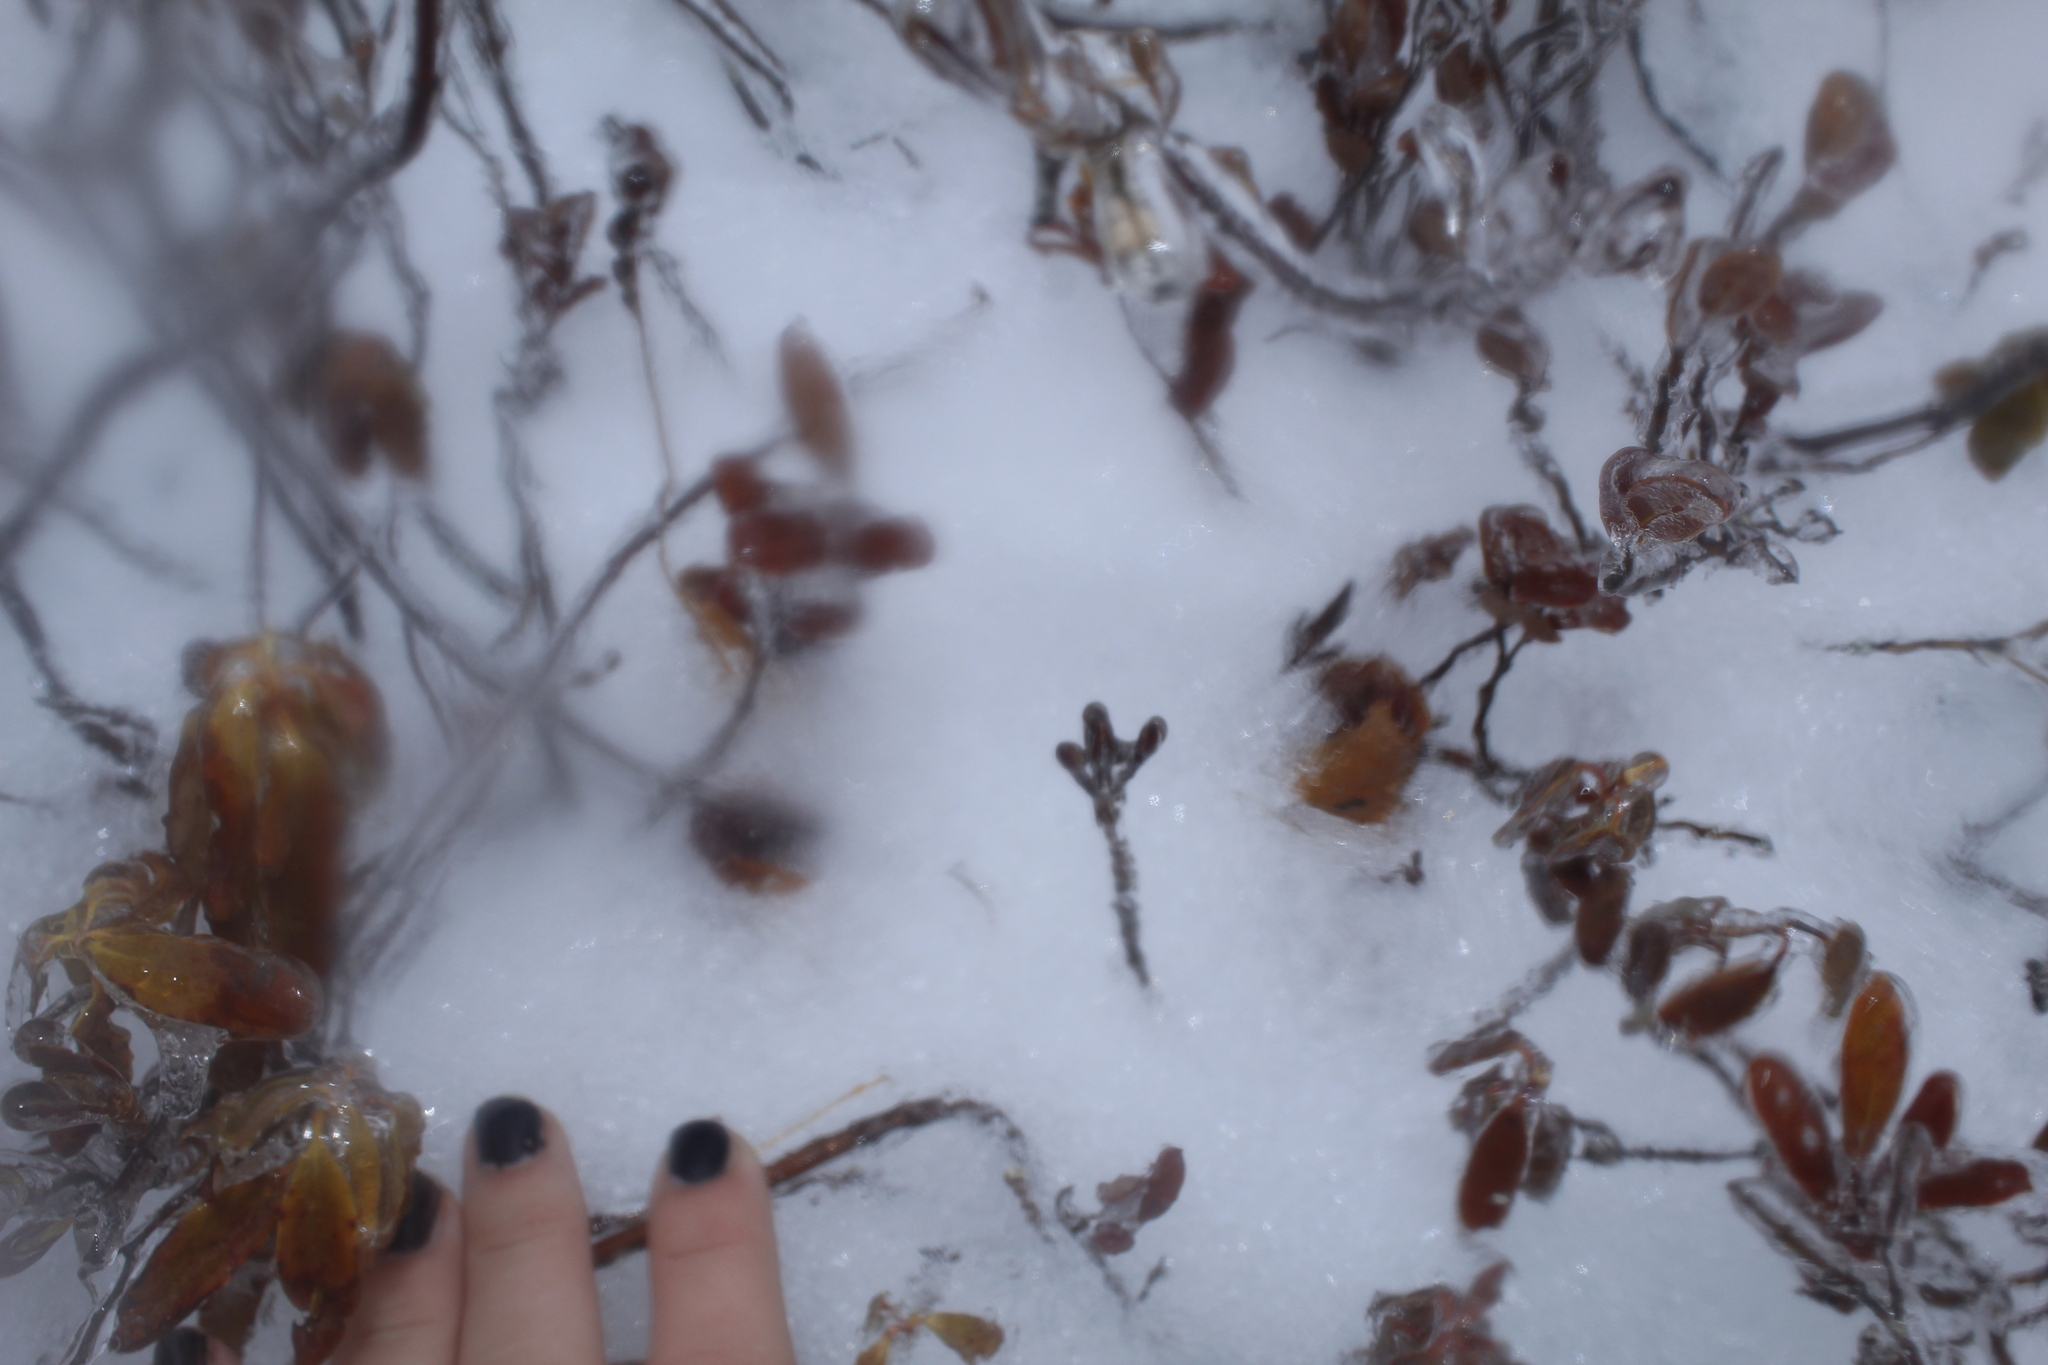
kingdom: Plantae
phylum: Tracheophyta
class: Magnoliopsida
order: Ericales
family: Ericaceae
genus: Kalmia
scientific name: Kalmia angustifolia
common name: Sheep-laurel
